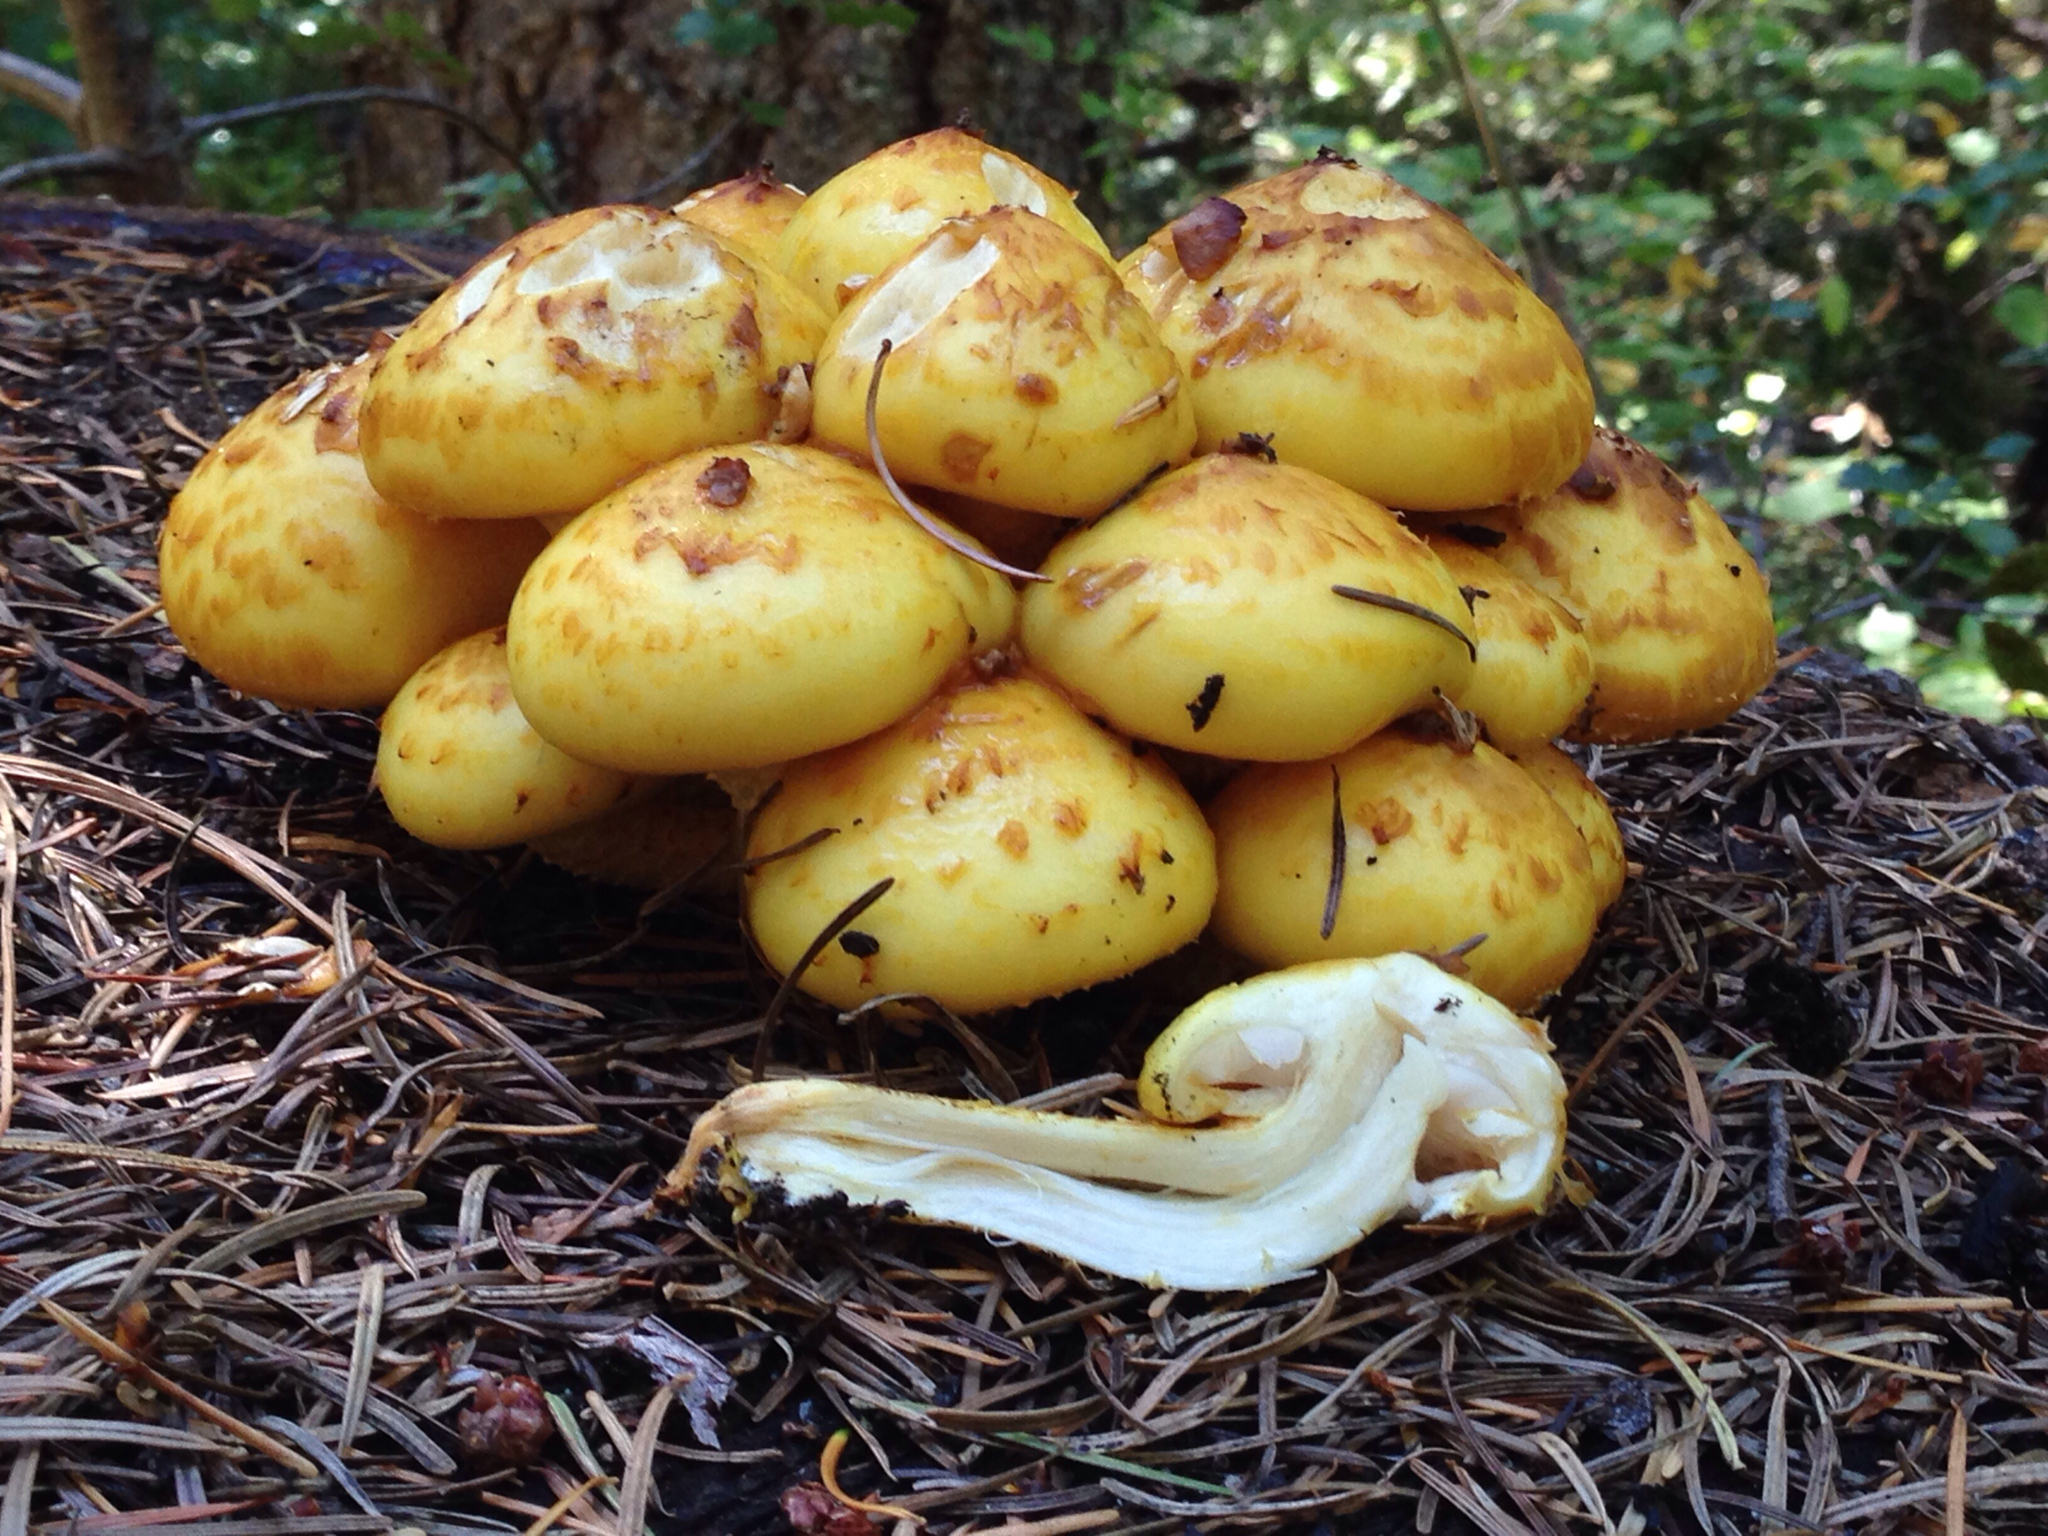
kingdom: Fungi
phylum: Basidiomycota
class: Agaricomycetes
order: Agaricales
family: Strophariaceae
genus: Pholiota
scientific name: Pholiota aurivella
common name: Golden scalycap
